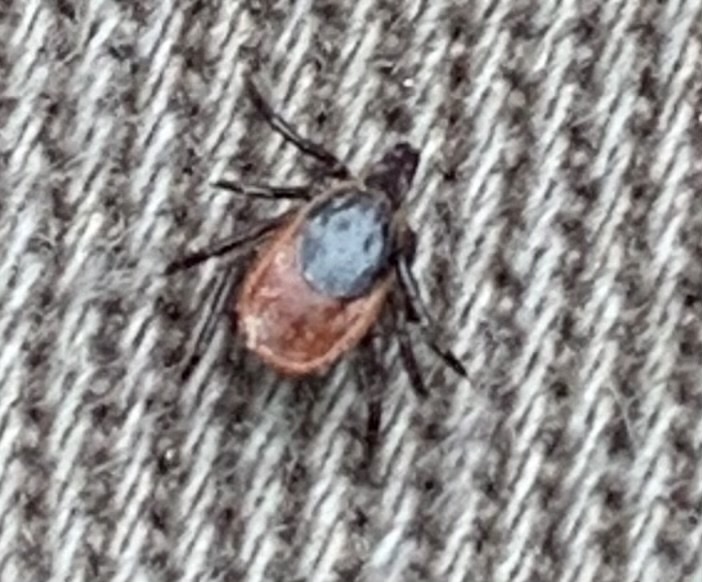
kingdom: Animalia
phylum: Arthropoda
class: Arachnida
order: Ixodida
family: Ixodidae
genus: Ixodes
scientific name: Ixodes scapularis
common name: Black legged tick
